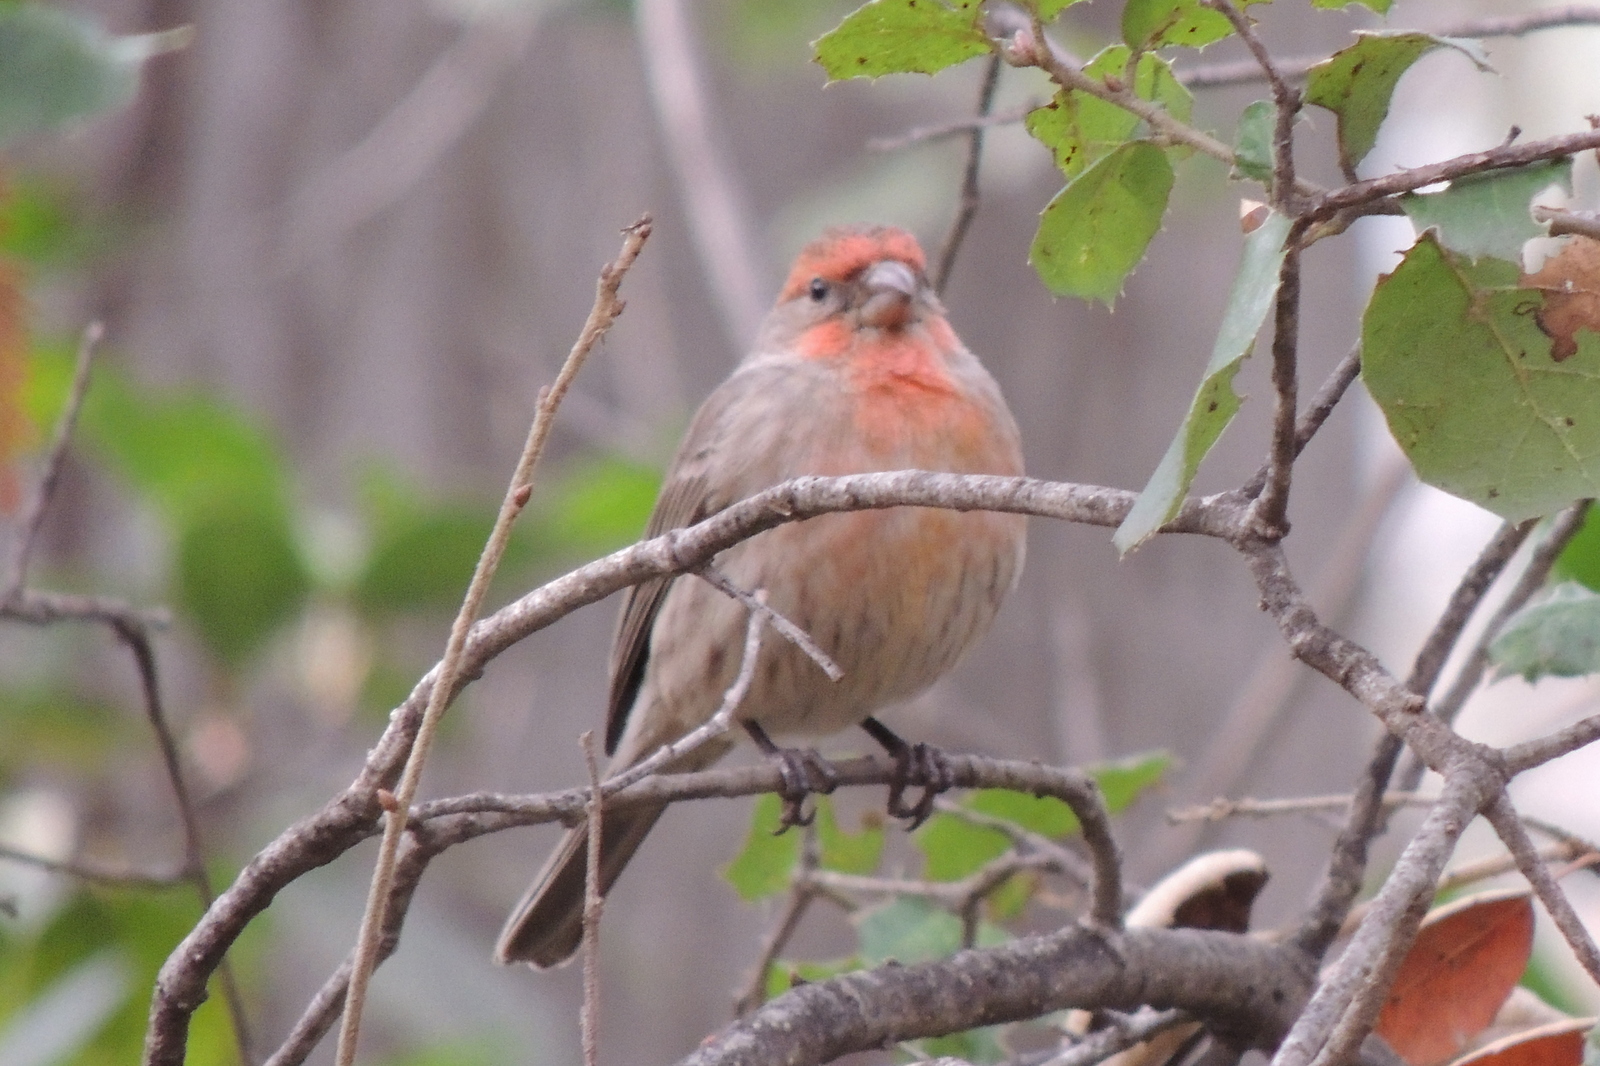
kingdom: Animalia
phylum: Chordata
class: Aves
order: Passeriformes
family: Fringillidae
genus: Haemorhous
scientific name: Haemorhous mexicanus
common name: House finch
